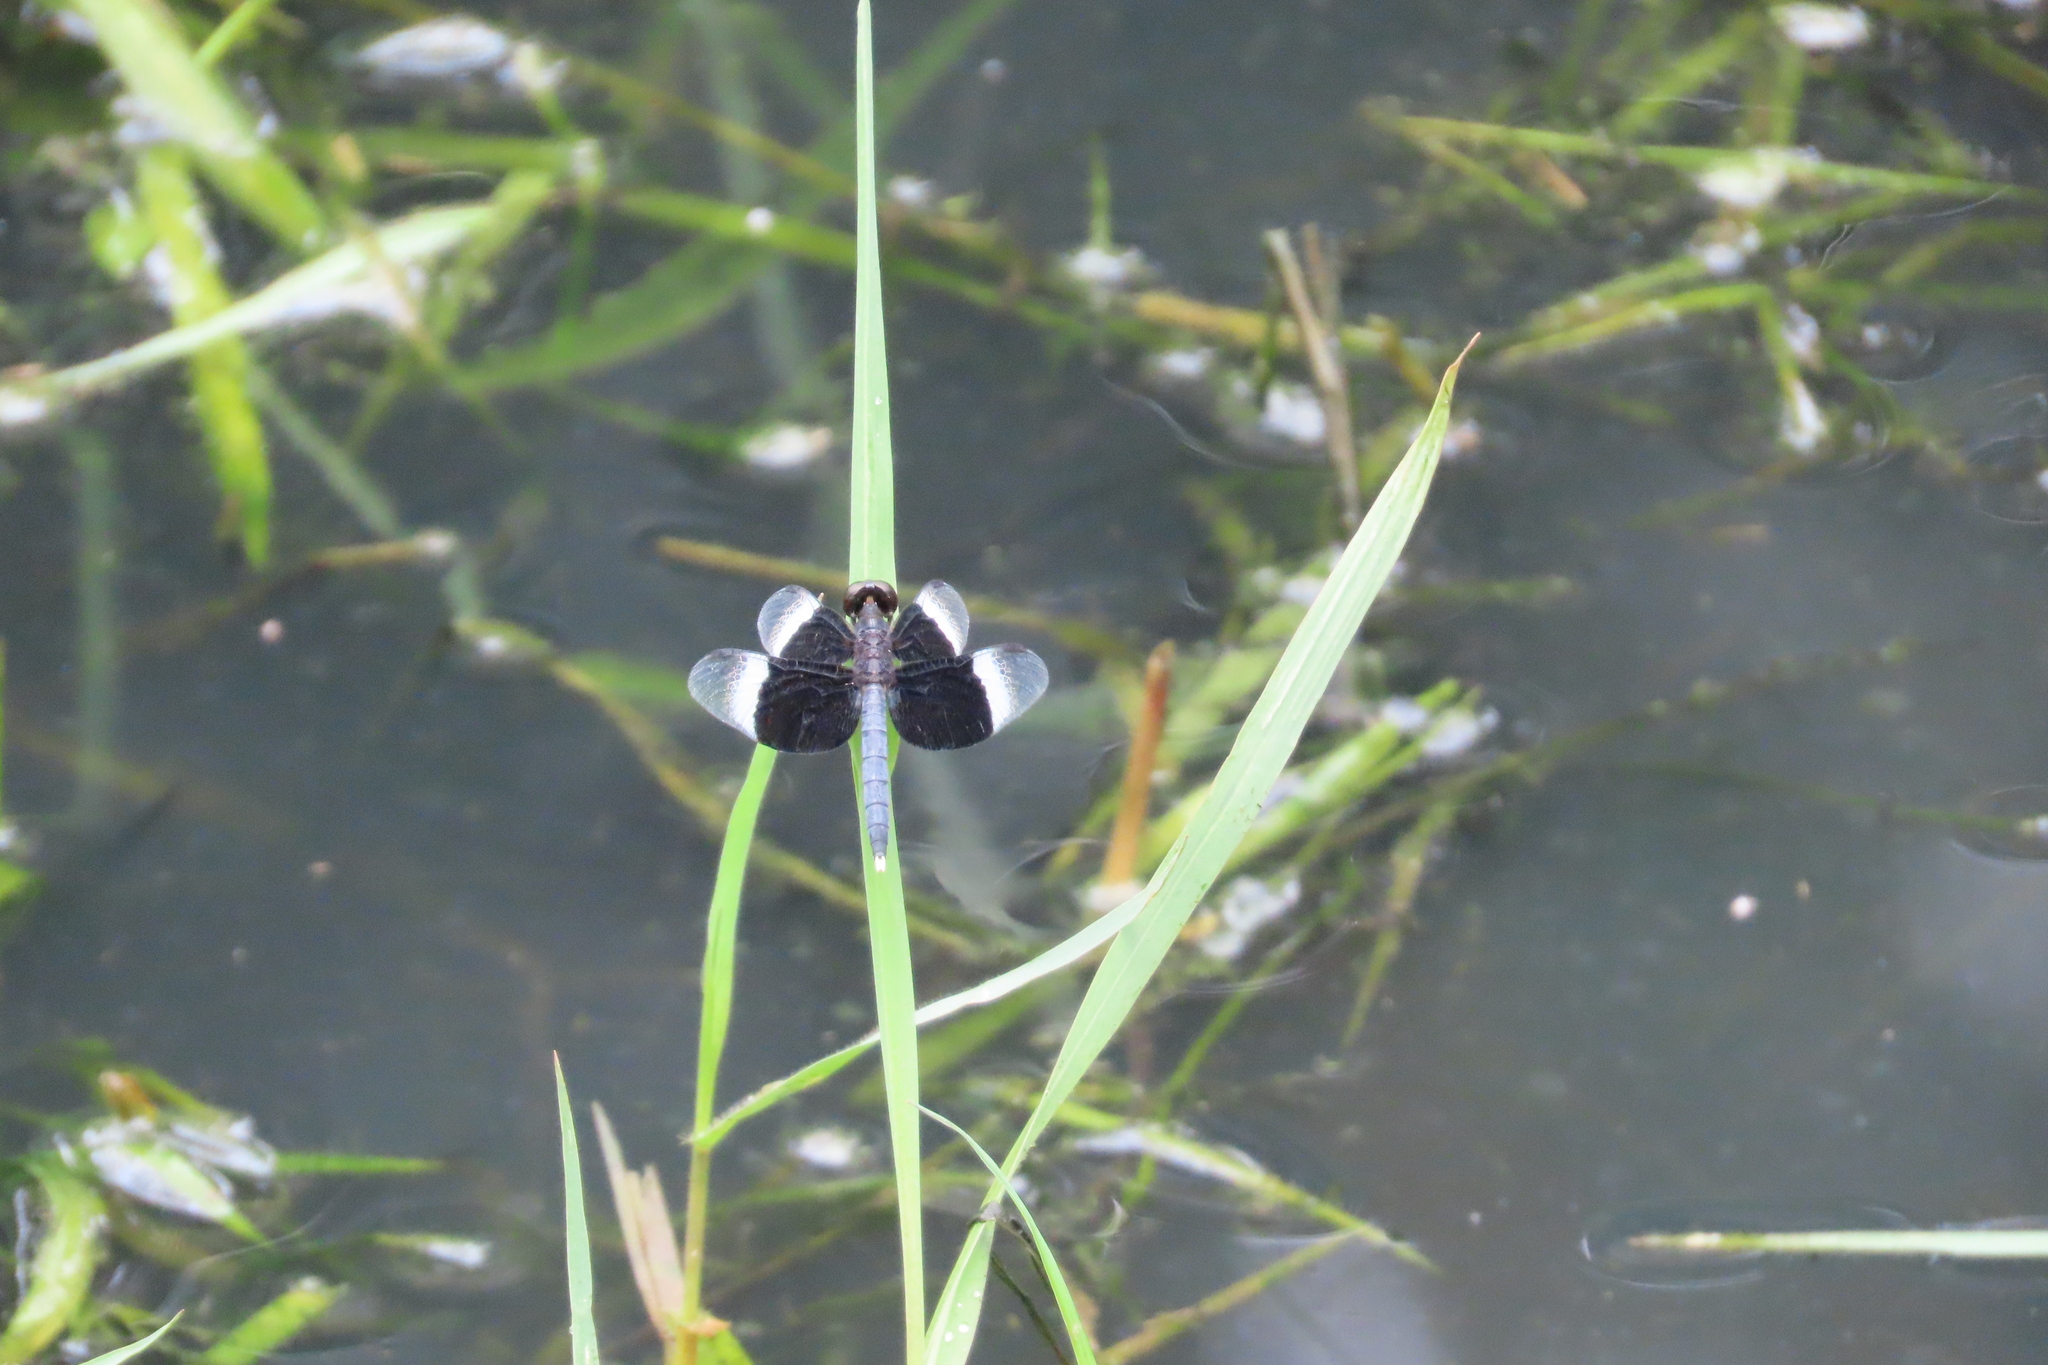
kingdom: Animalia
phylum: Arthropoda
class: Insecta
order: Odonata
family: Libellulidae
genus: Neurothemis
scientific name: Neurothemis tullia
